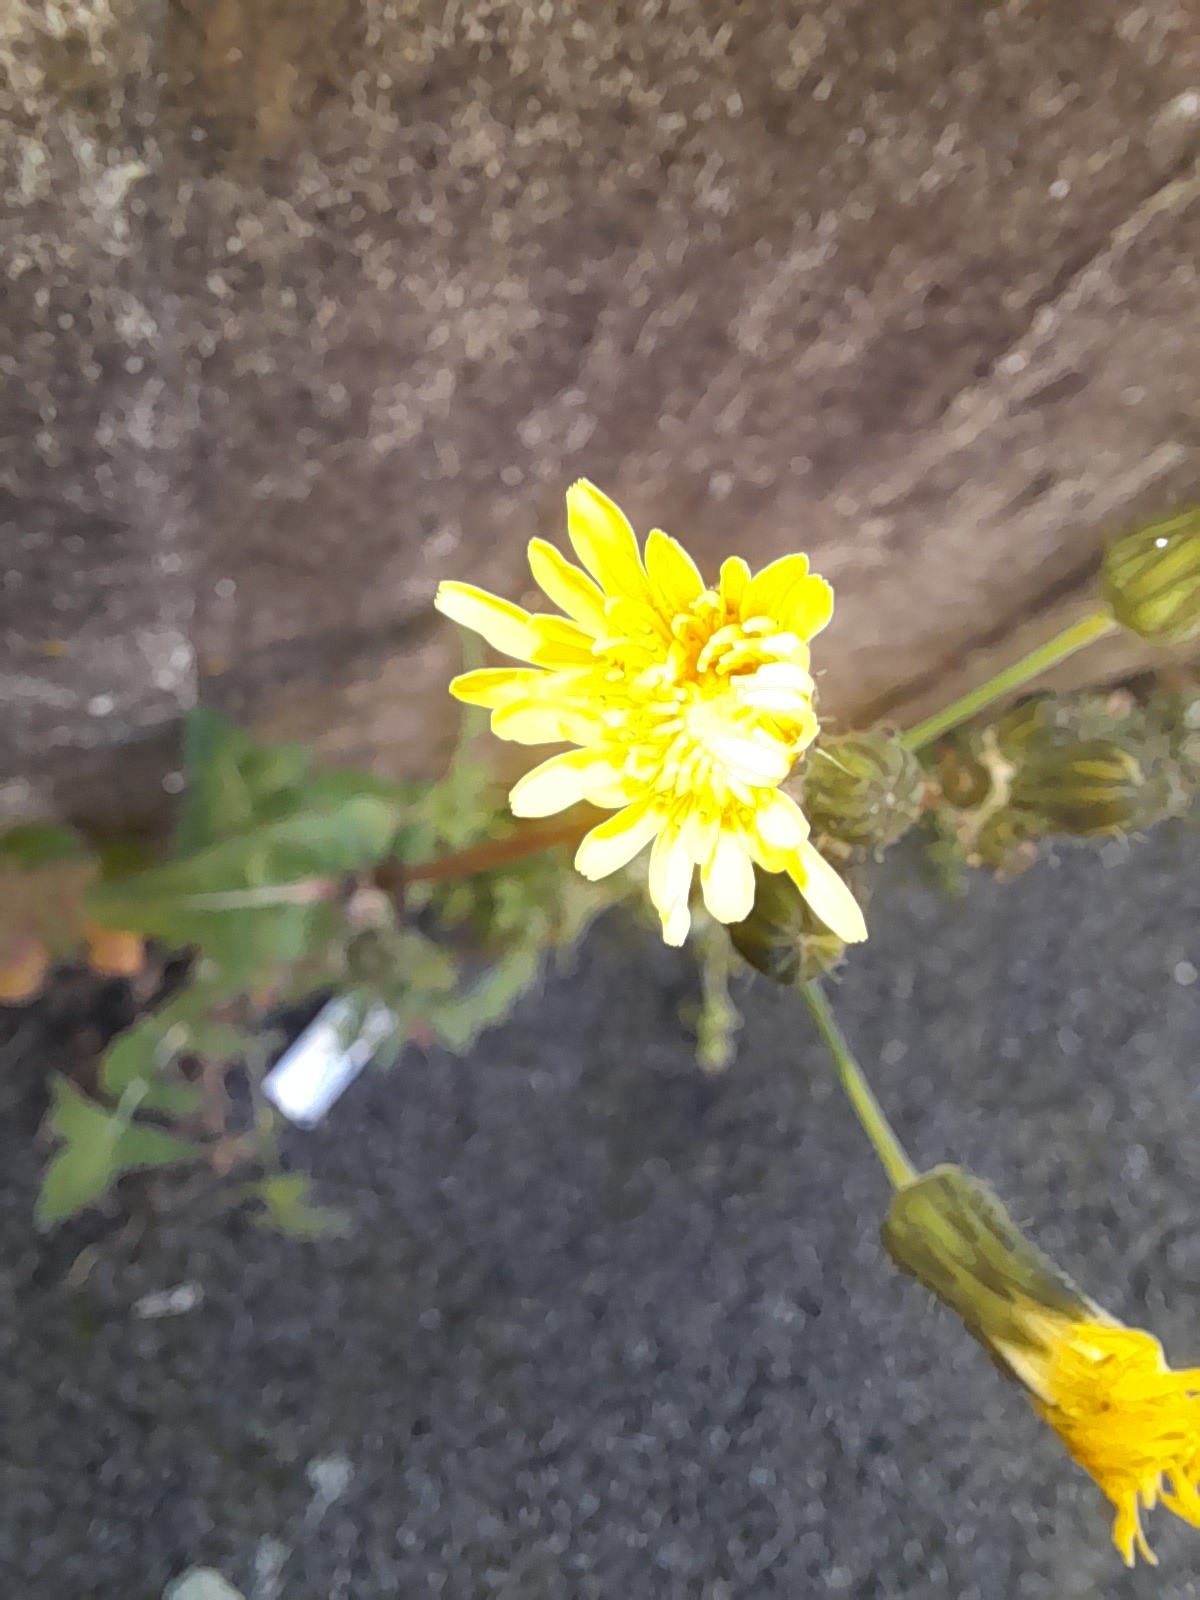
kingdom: Plantae
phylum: Tracheophyta
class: Magnoliopsida
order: Asterales
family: Asteraceae
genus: Sonchus
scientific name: Sonchus oleraceus
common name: Common sowthistle
